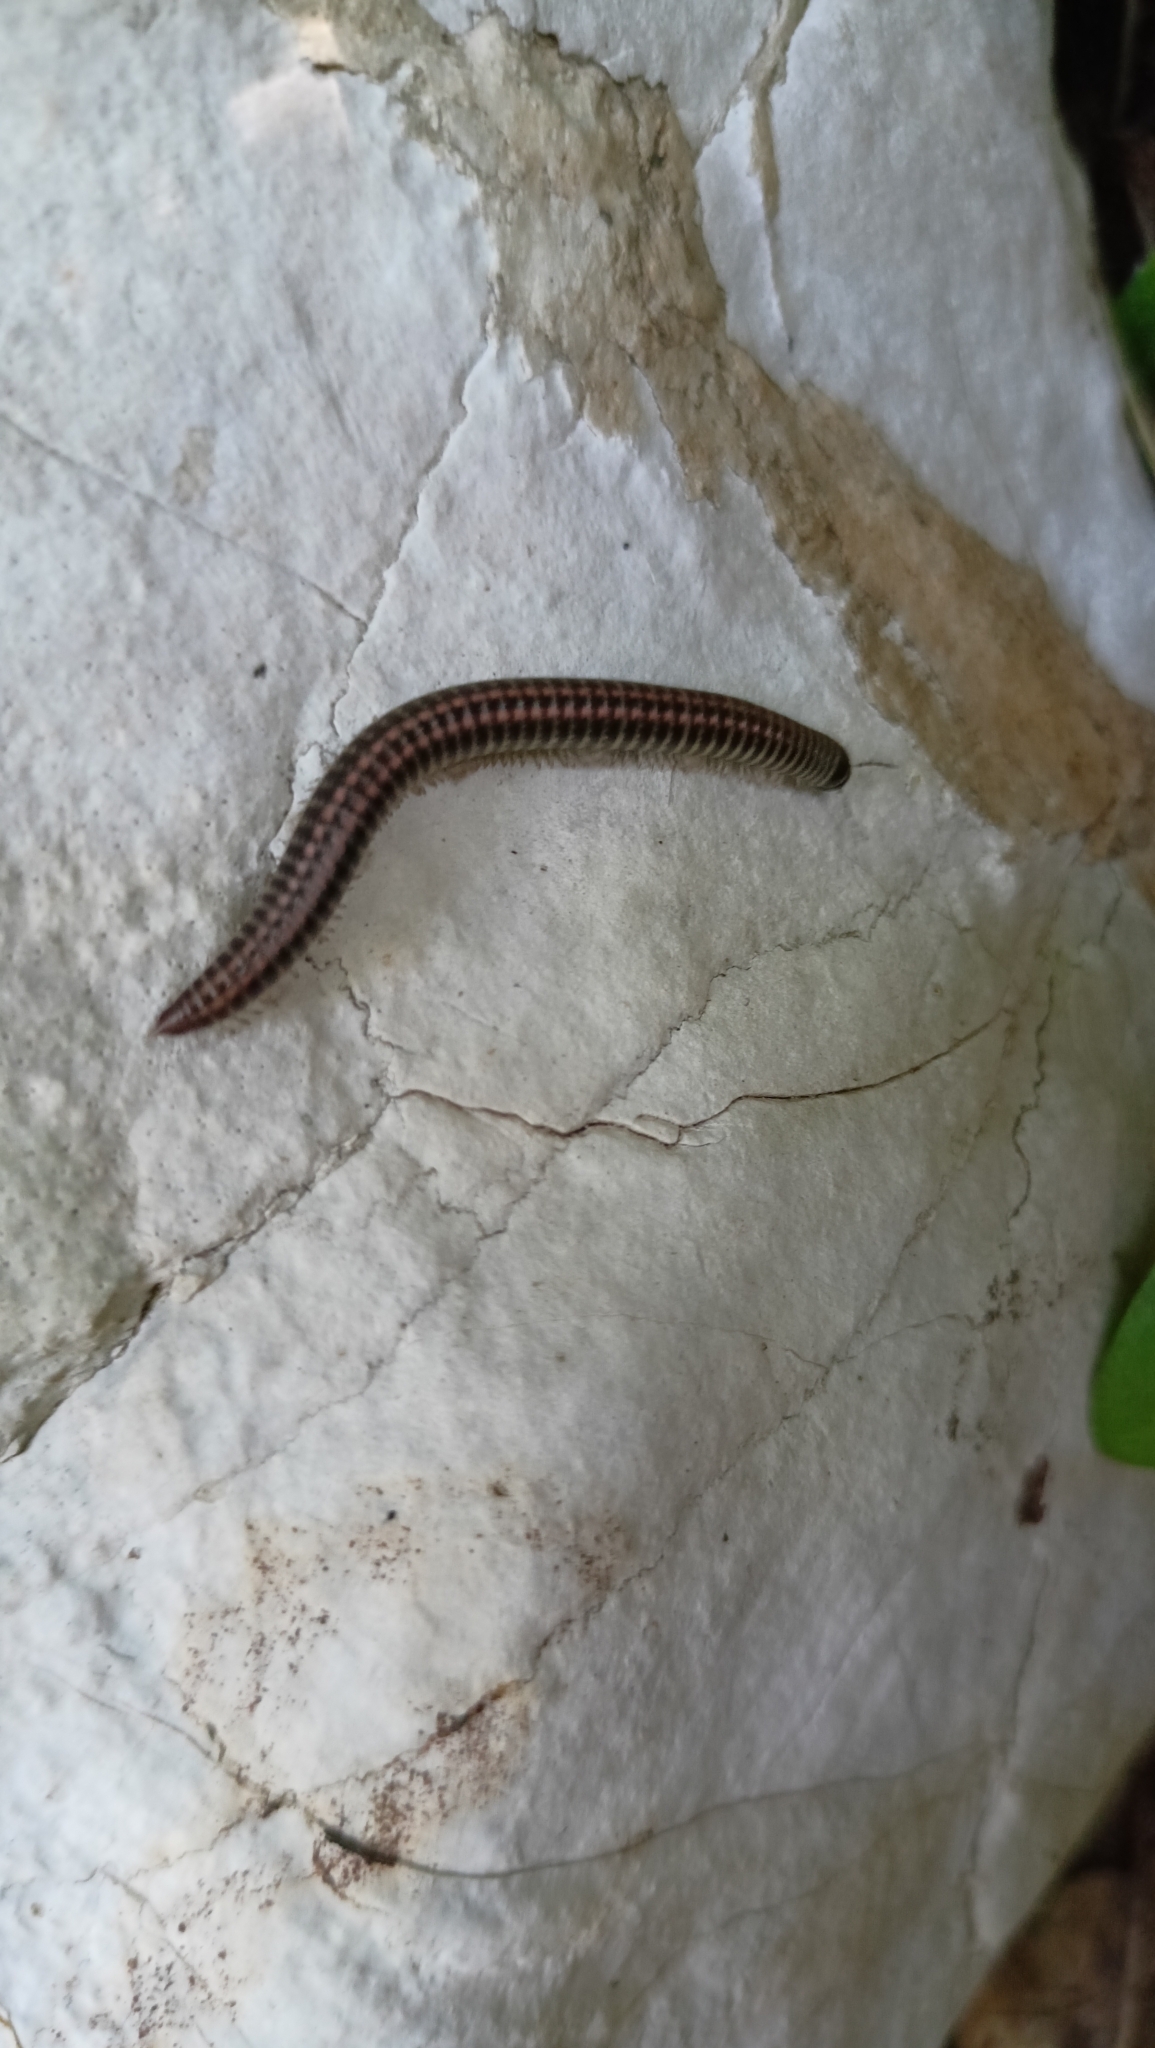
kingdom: Animalia
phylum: Arthropoda
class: Diplopoda
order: Julida
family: Julidae
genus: Ommatoiulus
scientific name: Ommatoiulus sabulosus
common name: Striped millipede
